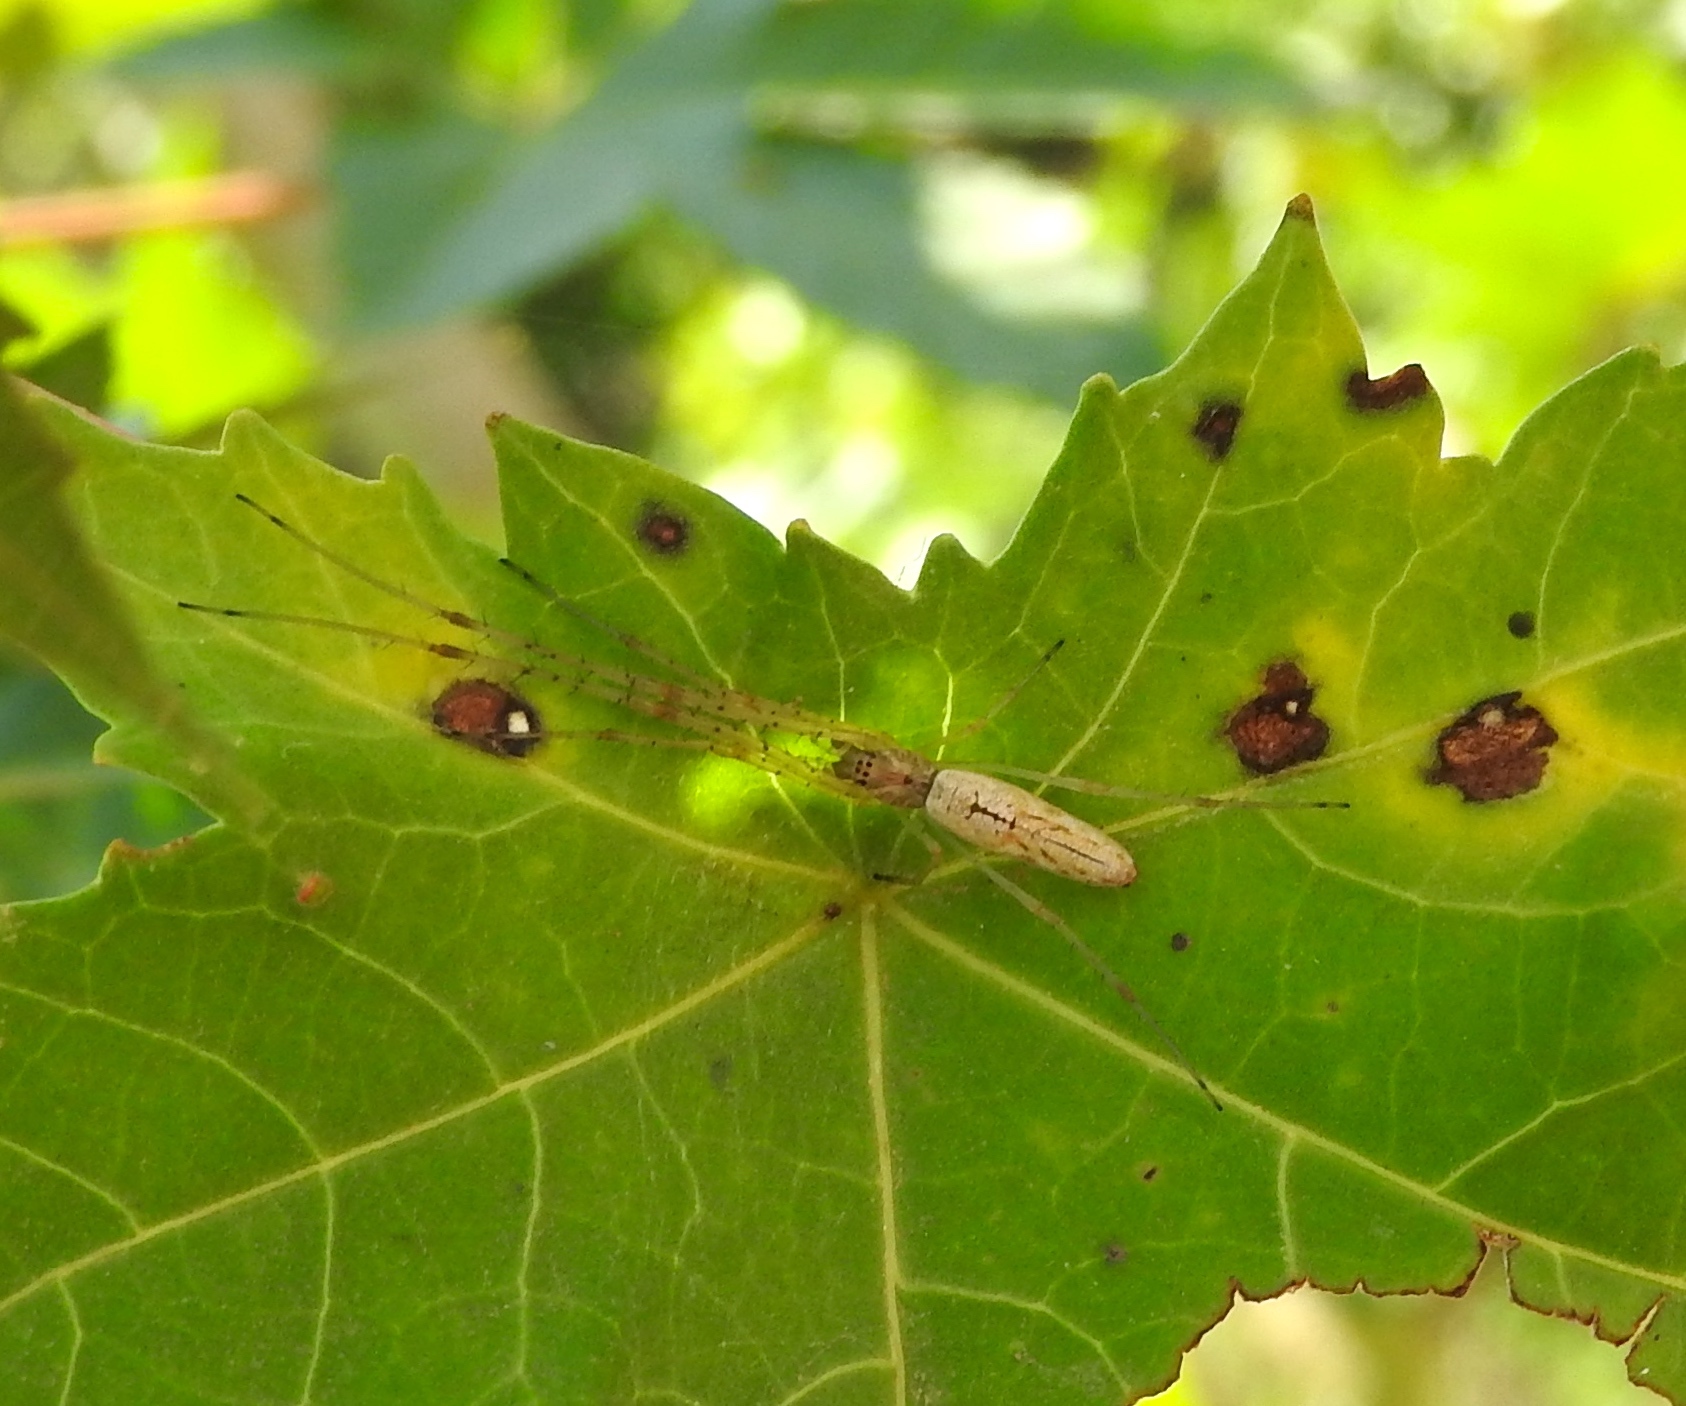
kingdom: Animalia
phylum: Arthropoda
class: Arachnida
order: Araneae
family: Tetragnathidae
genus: Tetragnatha
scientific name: Tetragnatha
